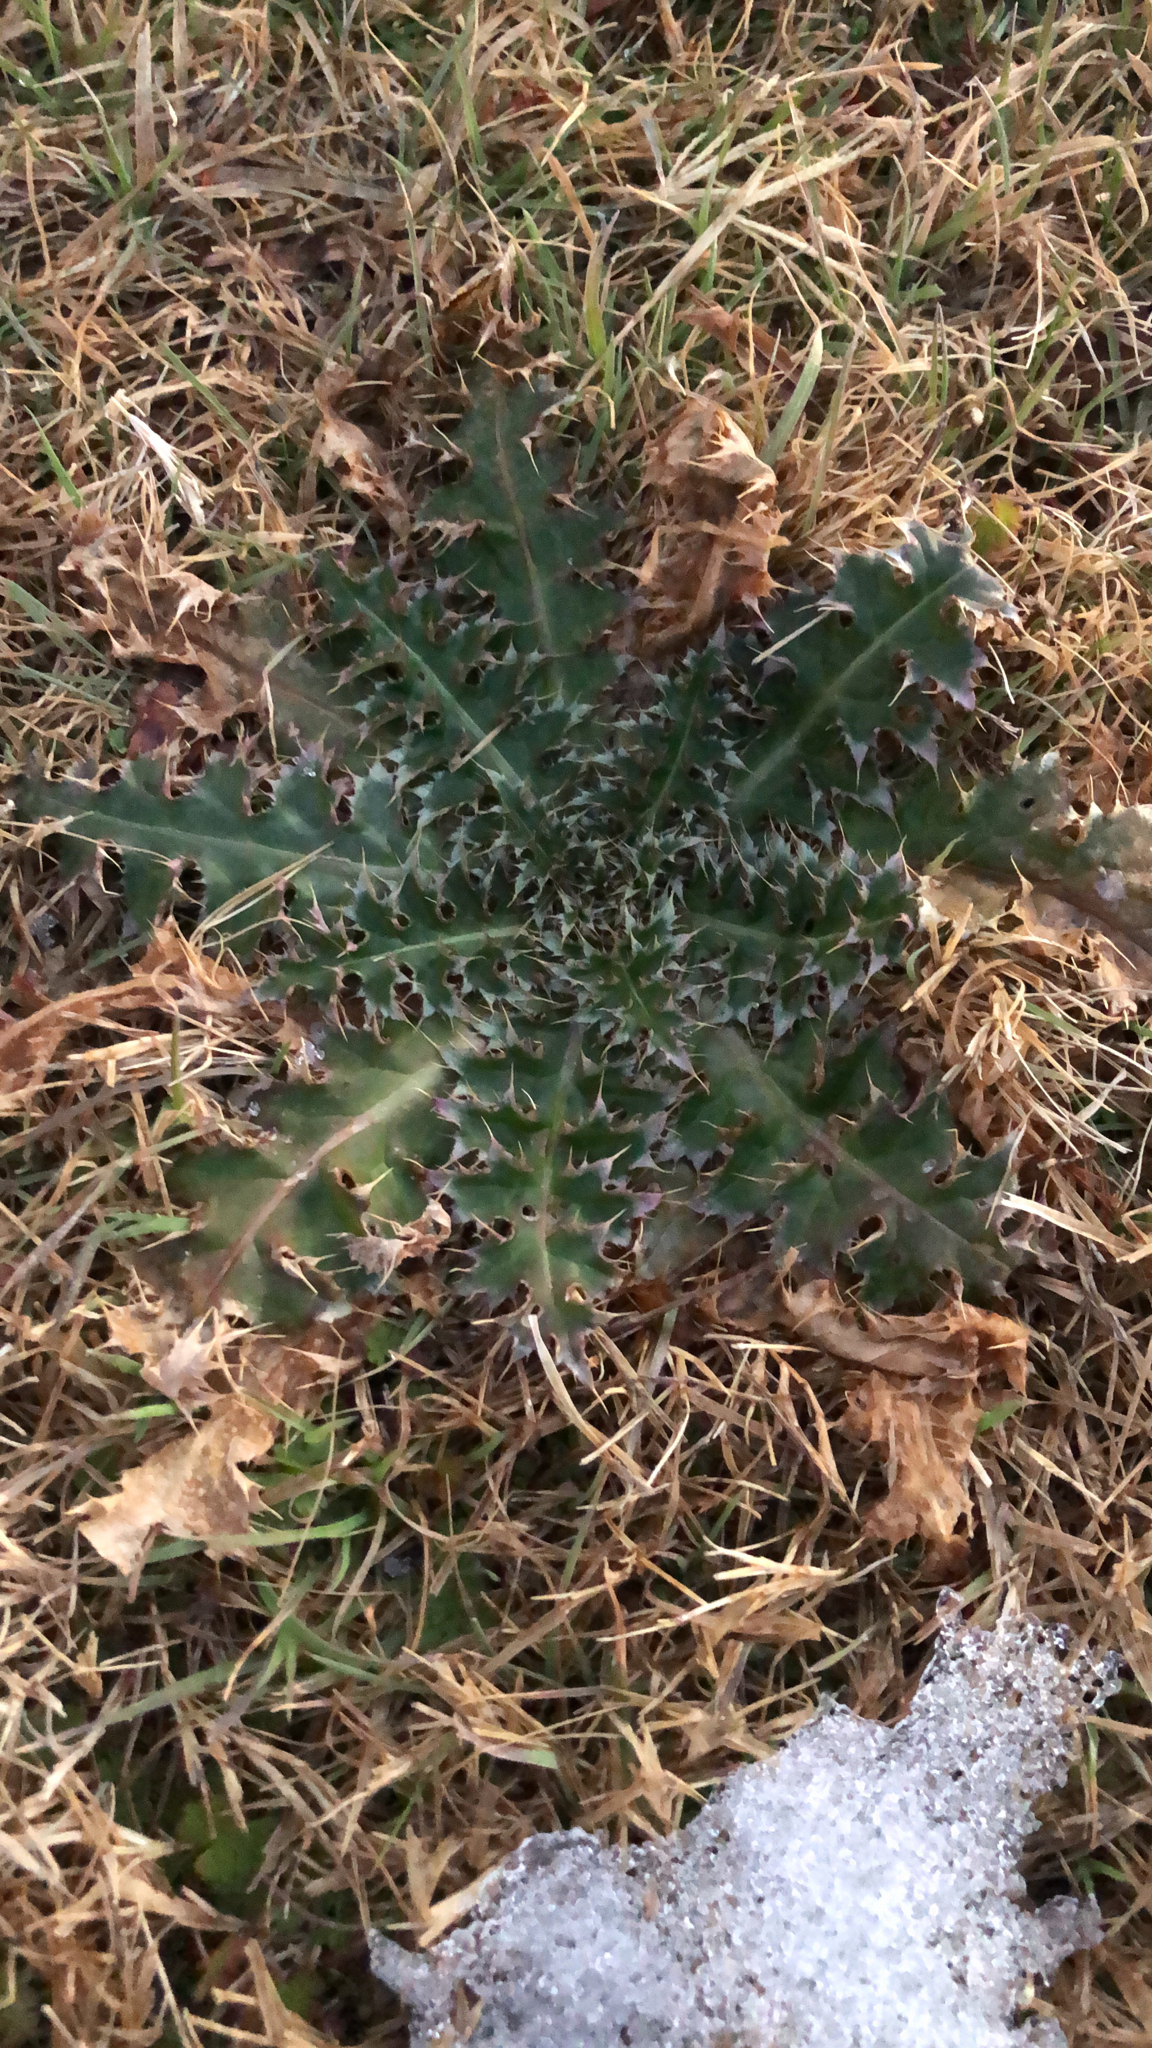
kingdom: Plantae
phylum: Tracheophyta
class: Magnoliopsida
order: Asterales
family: Asteraceae
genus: Carduus
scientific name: Carduus nutans
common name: Musk thistle
